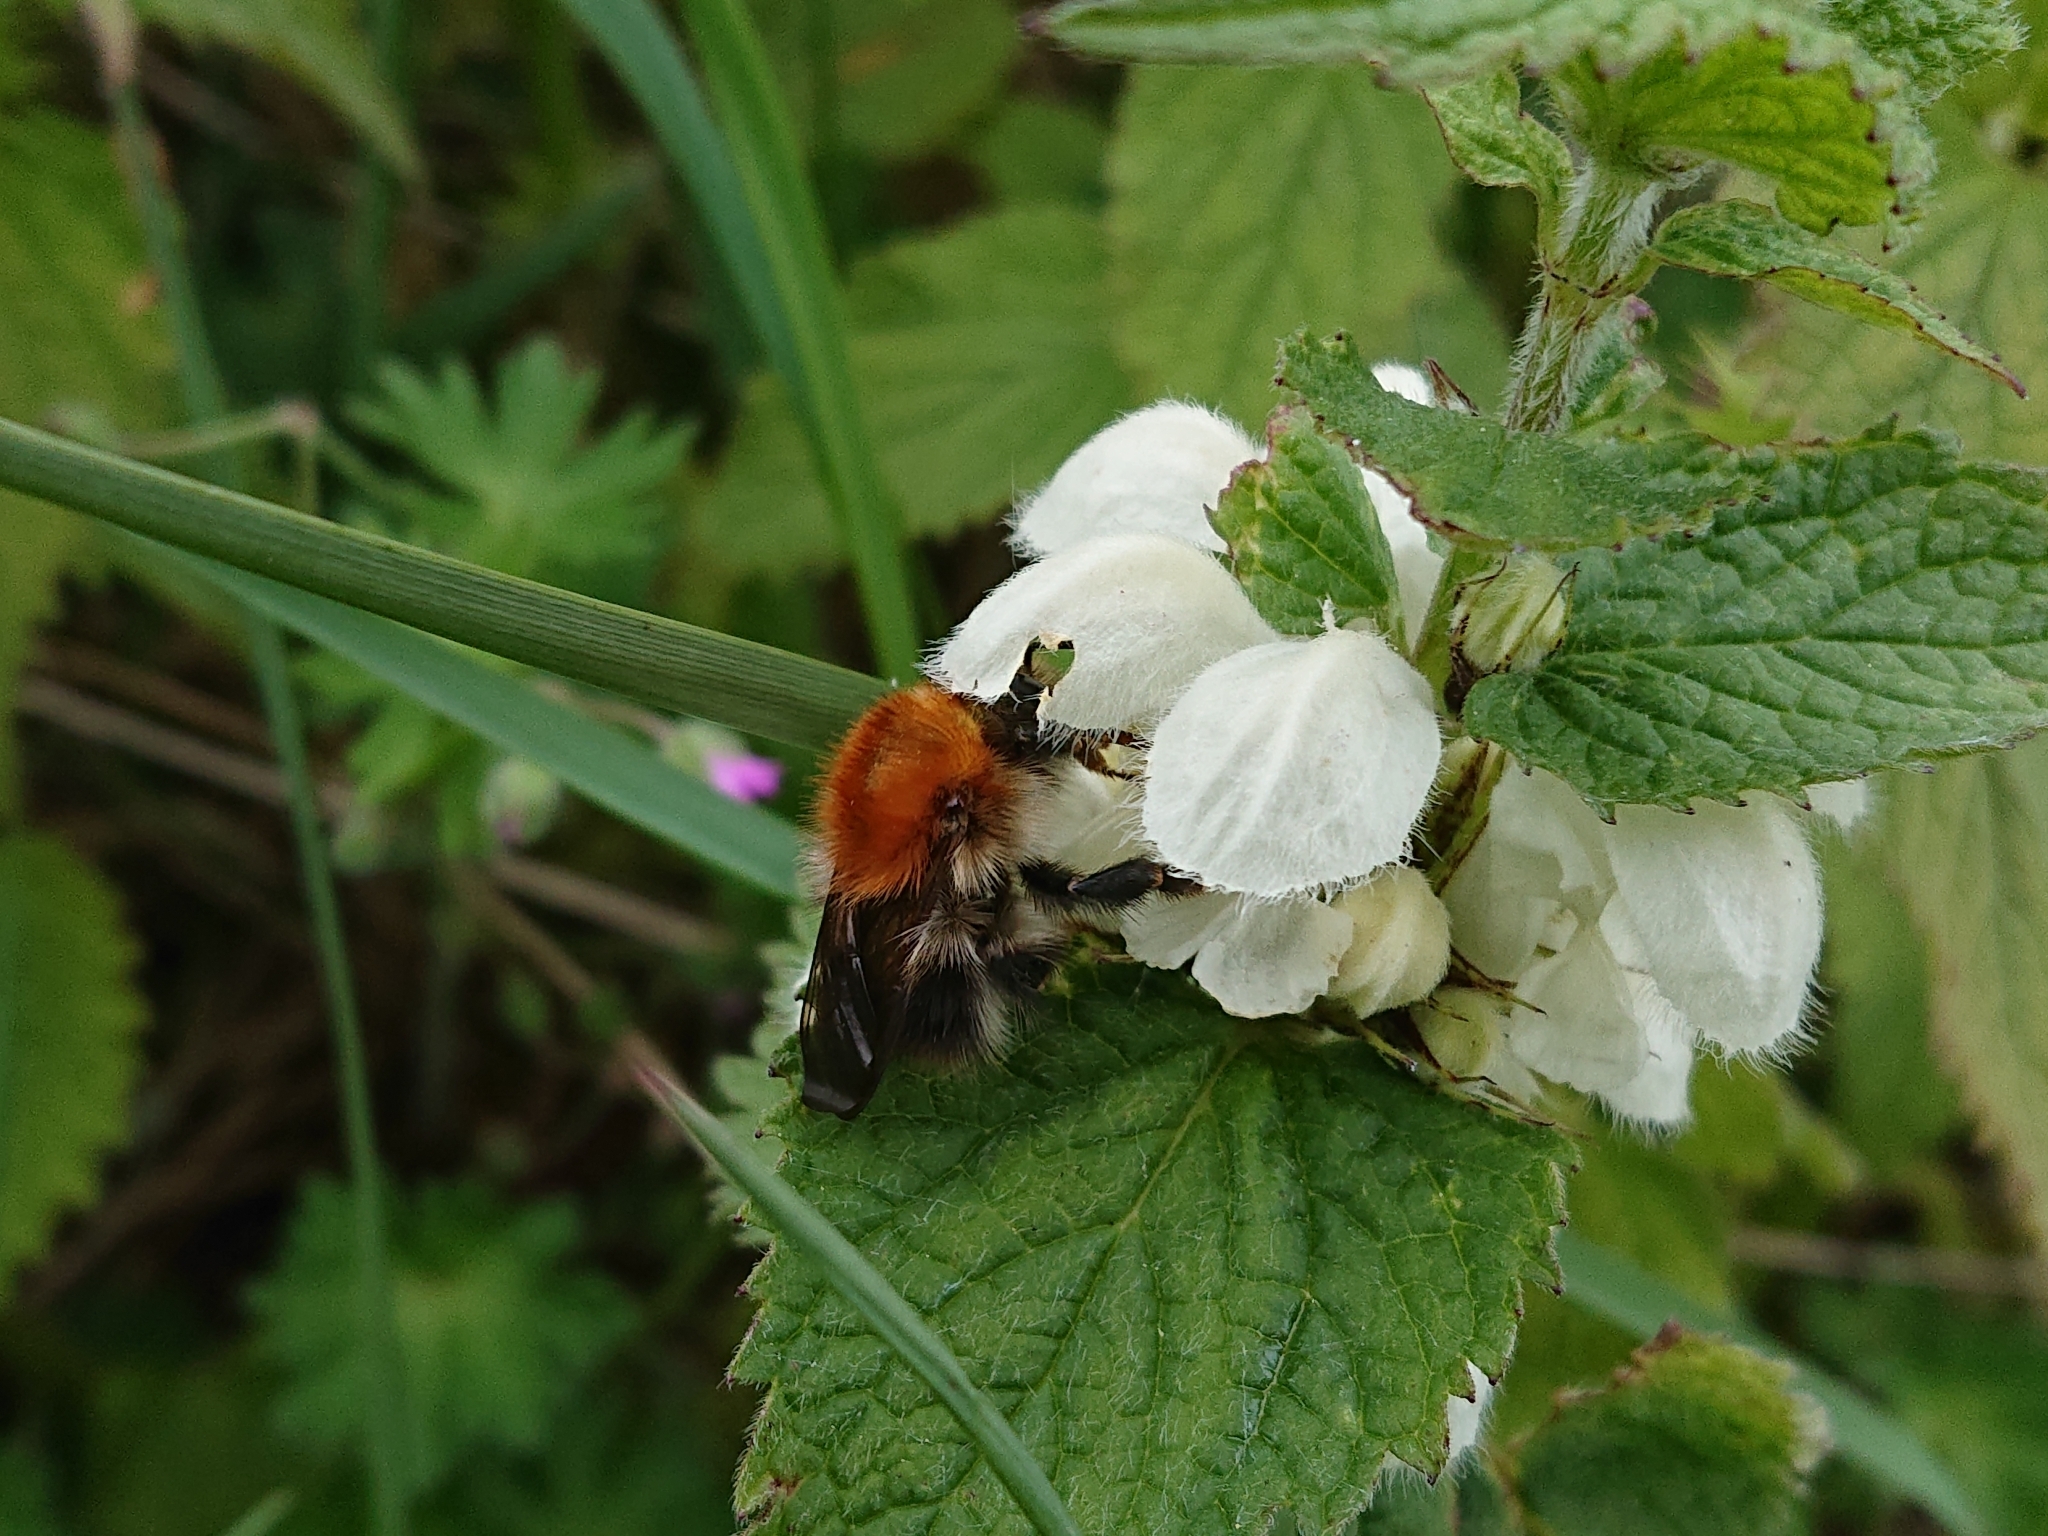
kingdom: Animalia
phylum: Arthropoda
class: Insecta
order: Hymenoptera
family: Apidae
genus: Bombus
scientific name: Bombus pascuorum
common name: Common carder bee
